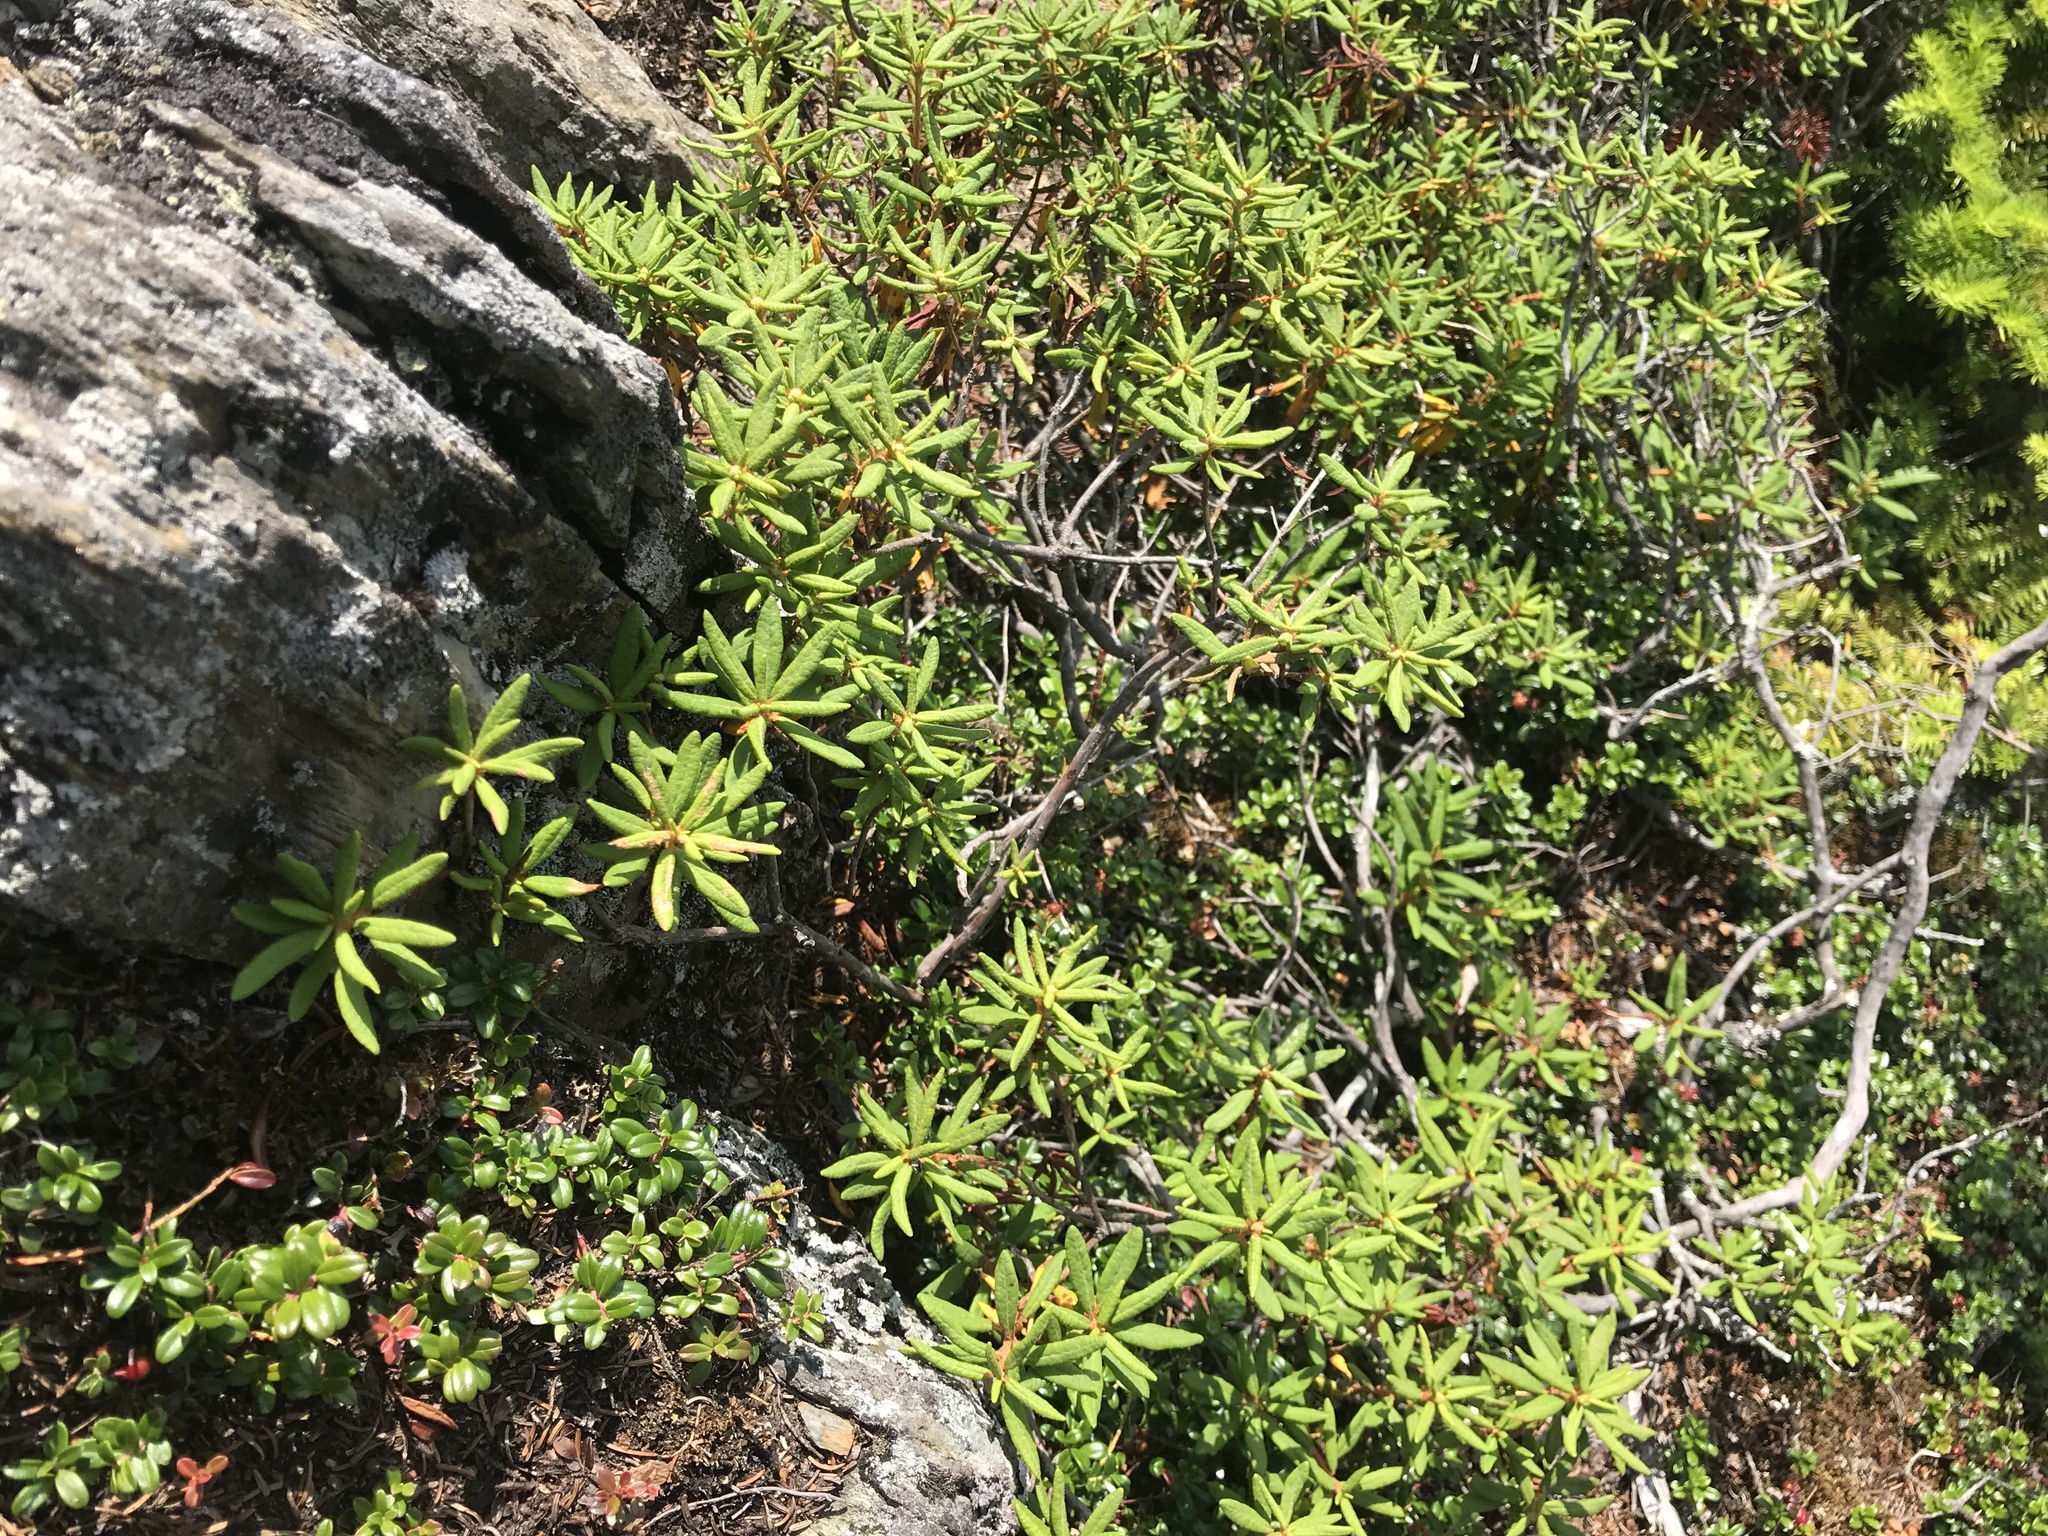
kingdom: Plantae
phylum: Tracheophyta
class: Magnoliopsida
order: Ericales
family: Ericaceae
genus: Rhododendron
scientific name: Rhododendron groenlandicum
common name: Bog labrador tea
